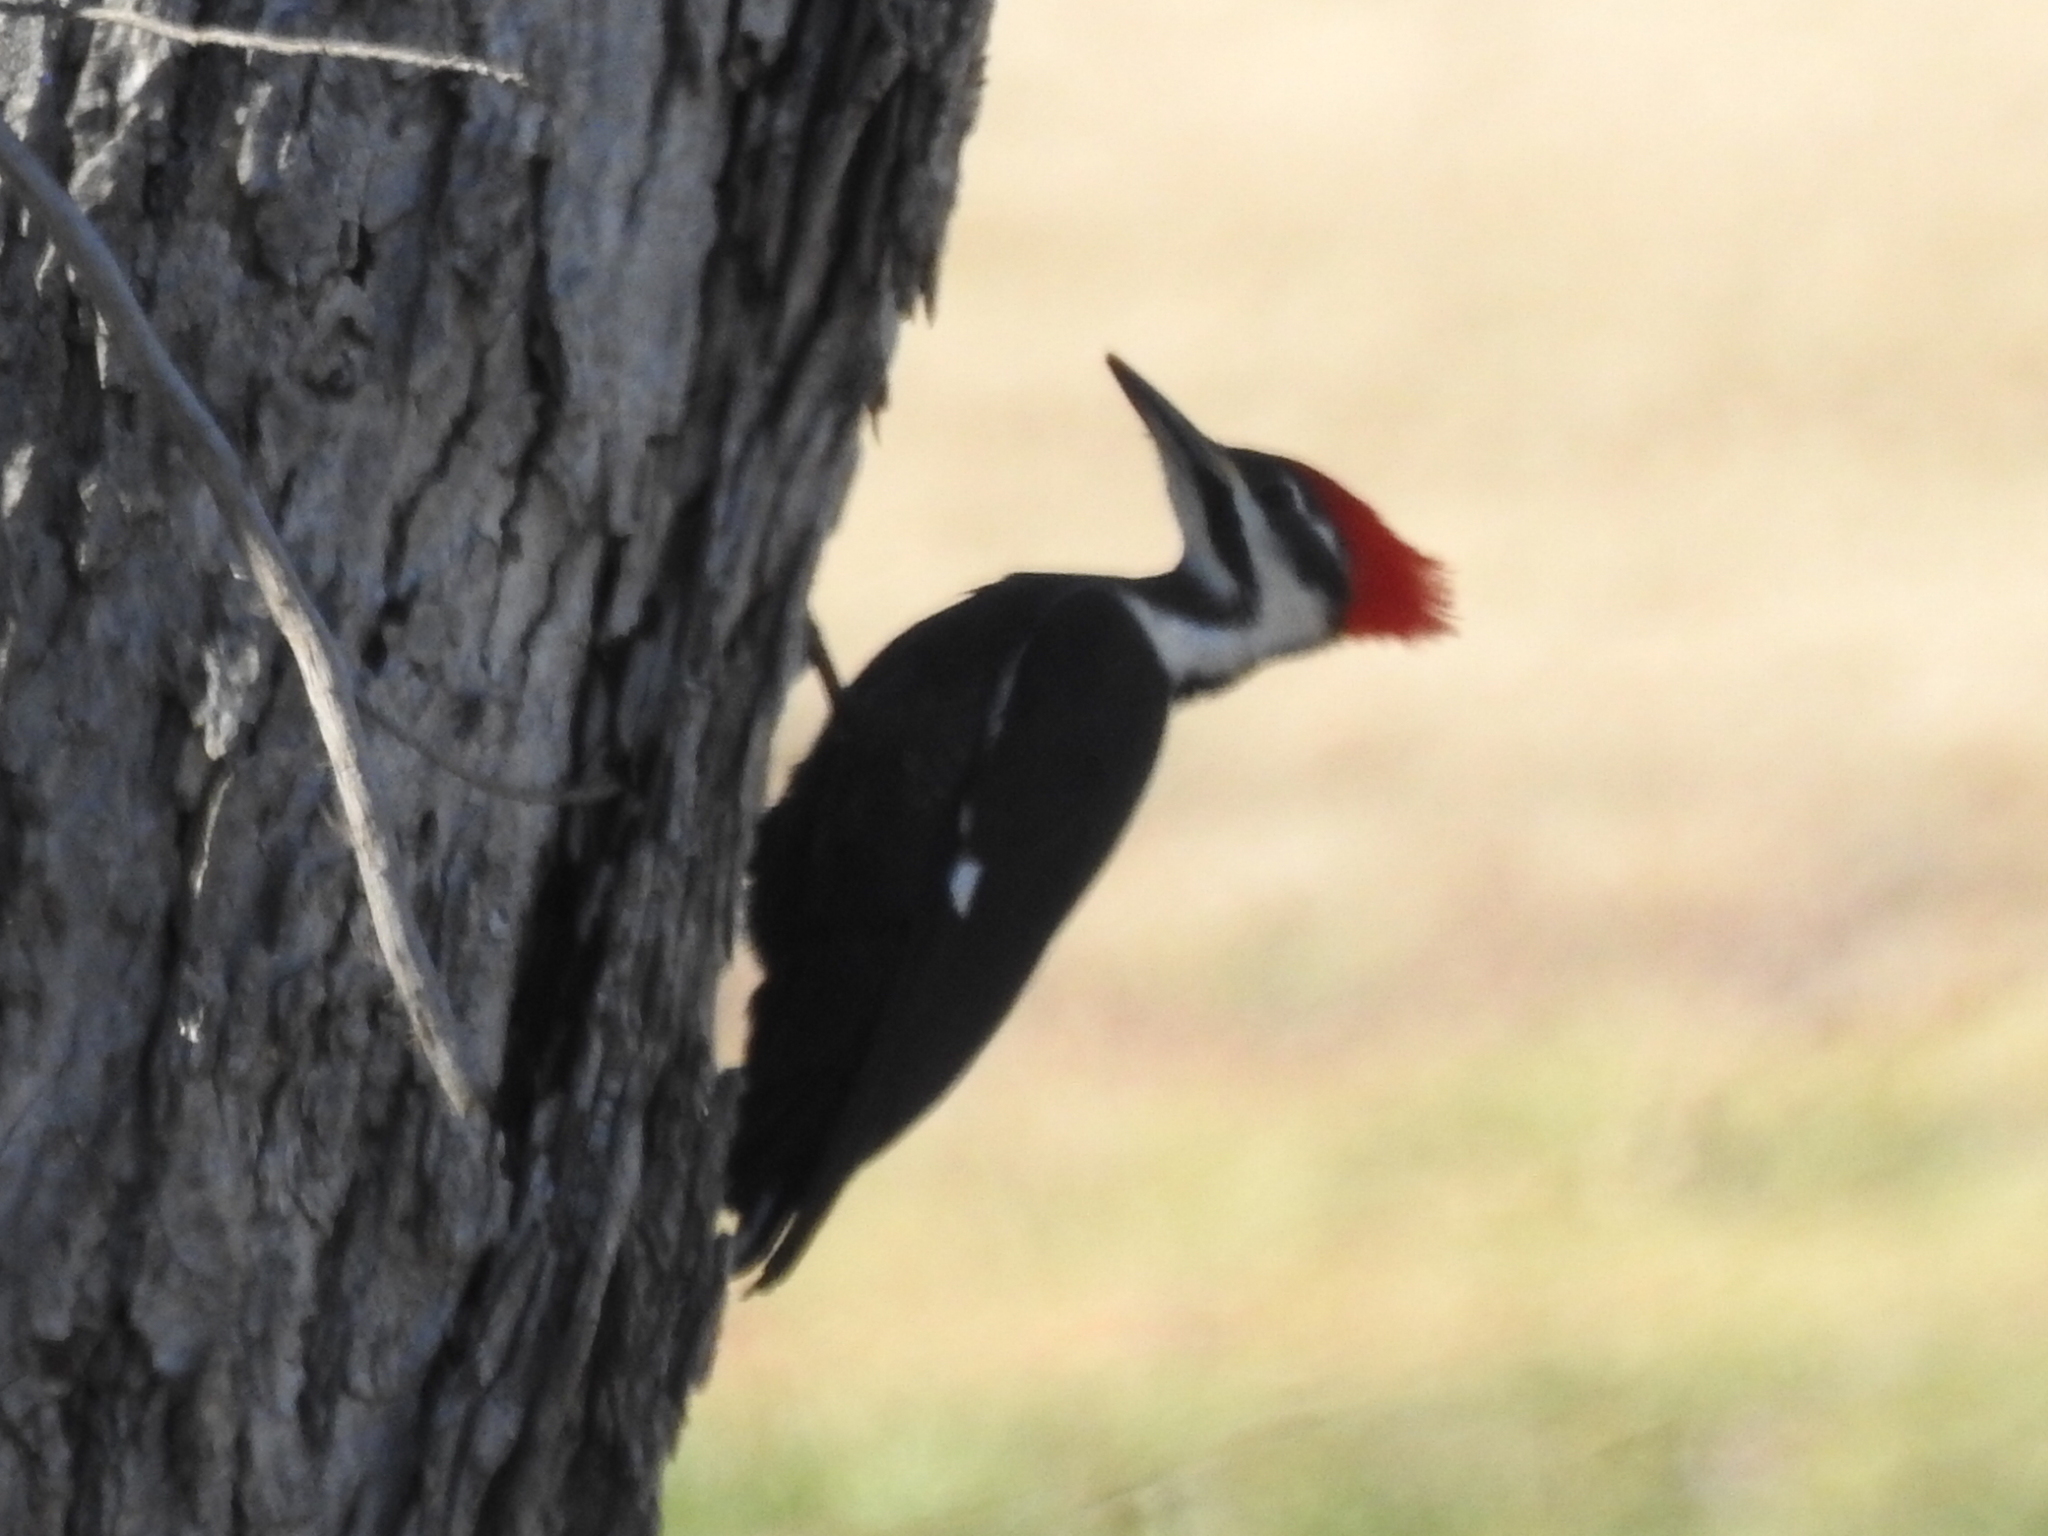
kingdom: Animalia
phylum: Chordata
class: Aves
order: Piciformes
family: Picidae
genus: Dryocopus
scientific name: Dryocopus pileatus
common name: Pileated woodpecker
